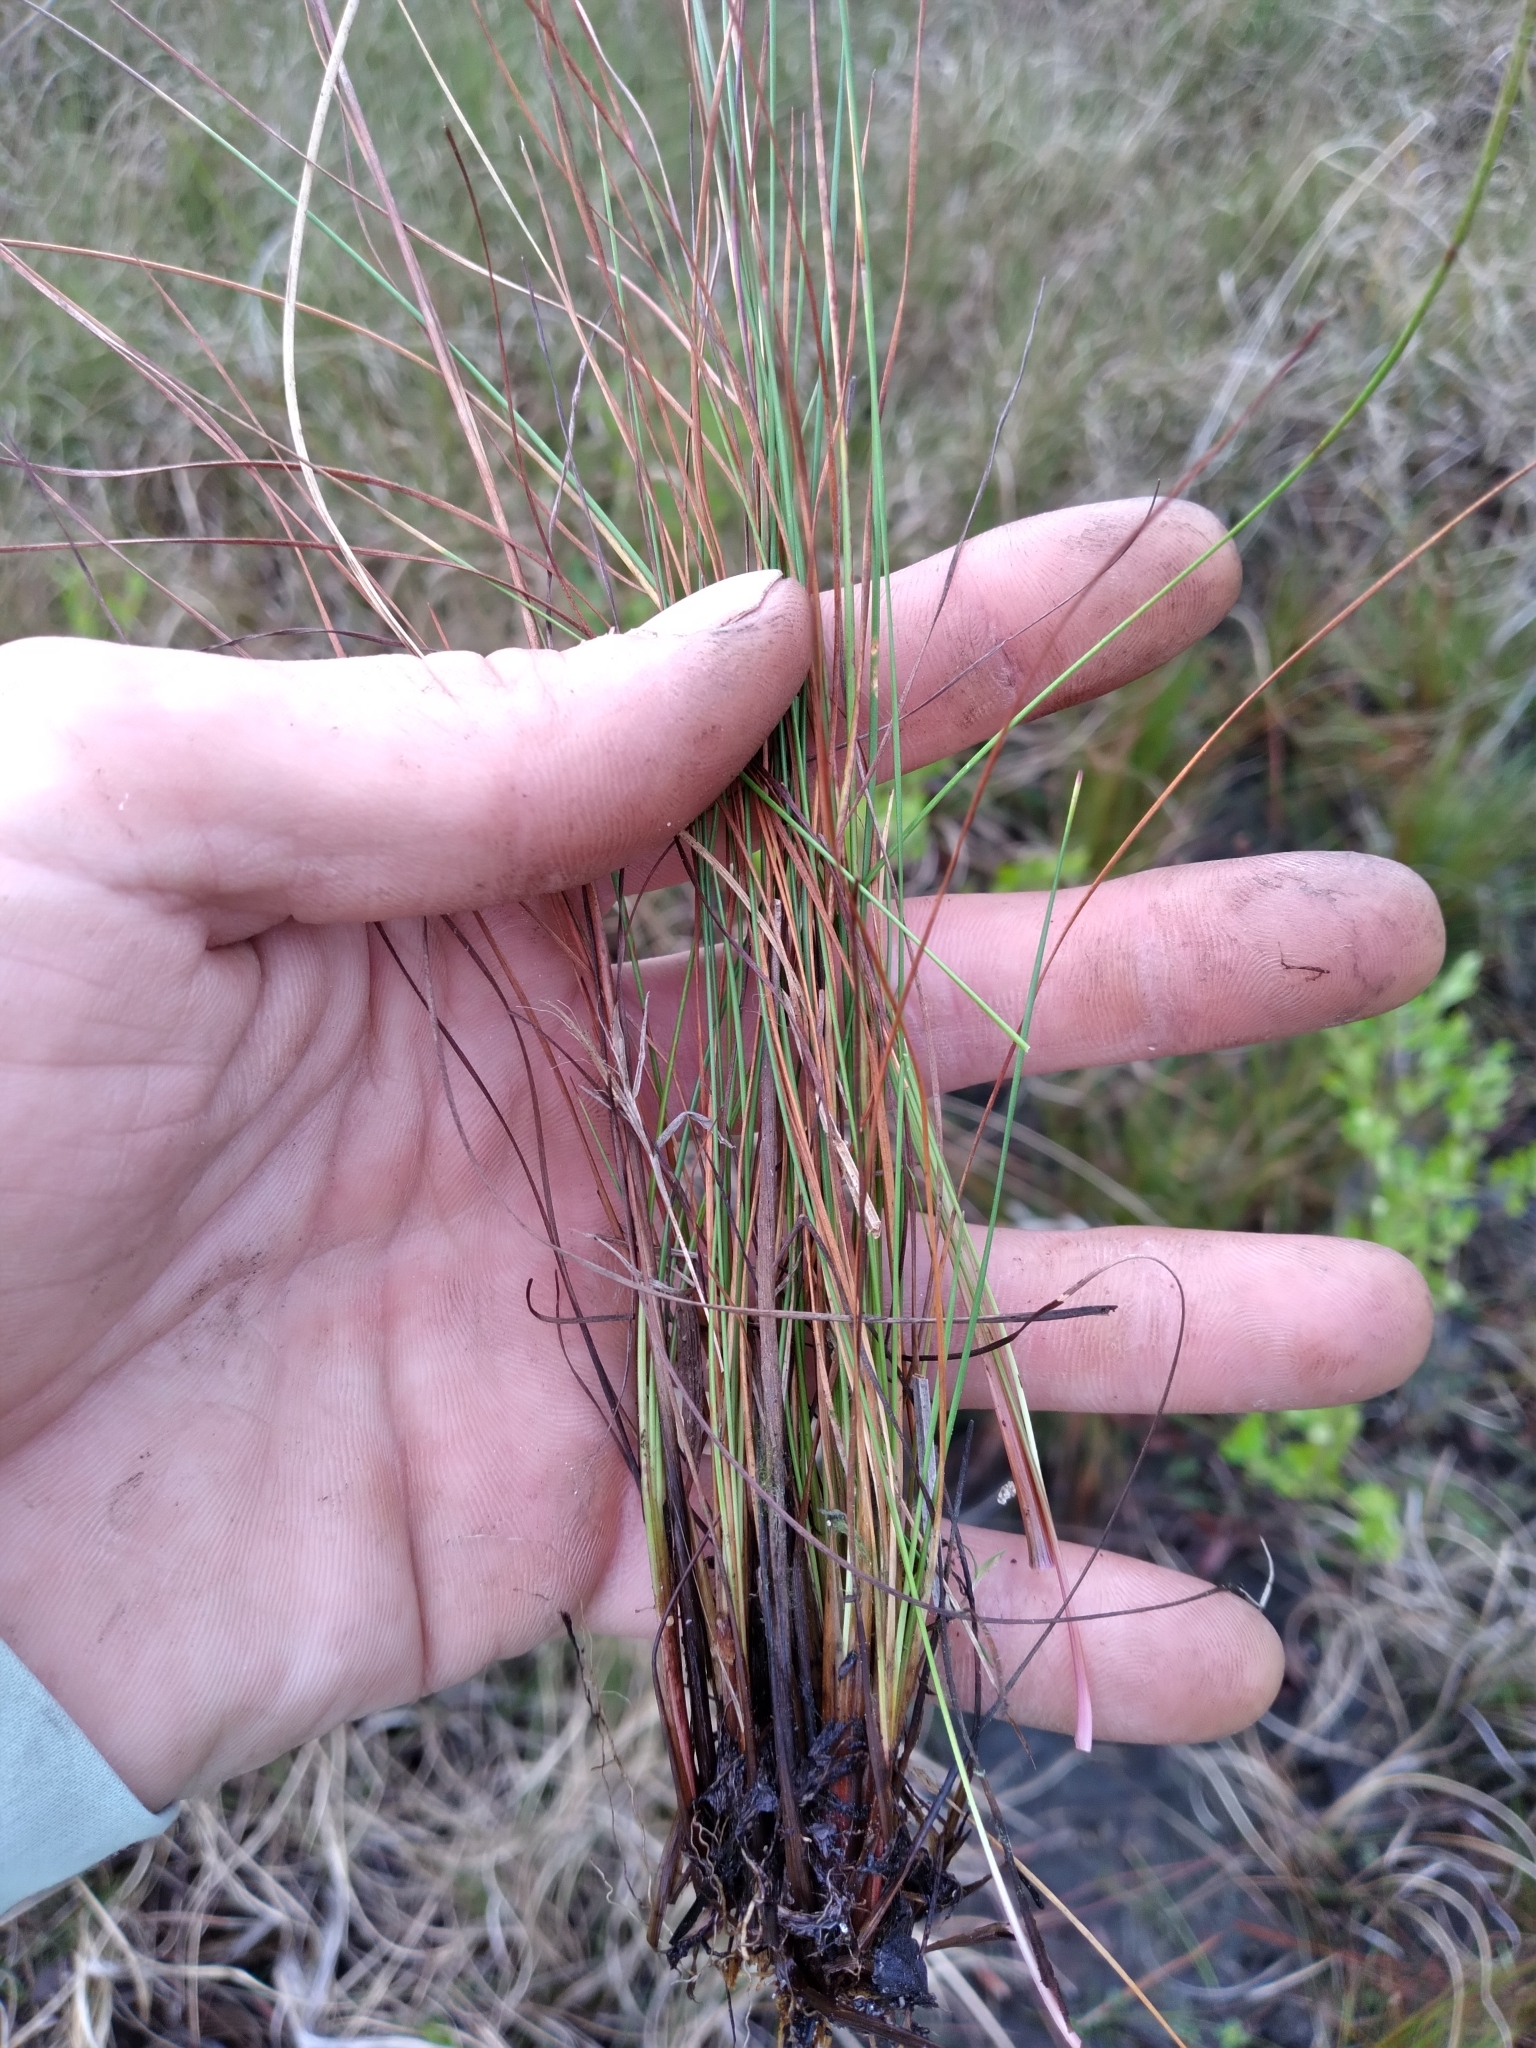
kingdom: Plantae
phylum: Tracheophyta
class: Liliopsida
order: Poales
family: Xyridaceae
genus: Xyris
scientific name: Xyris stenotera
